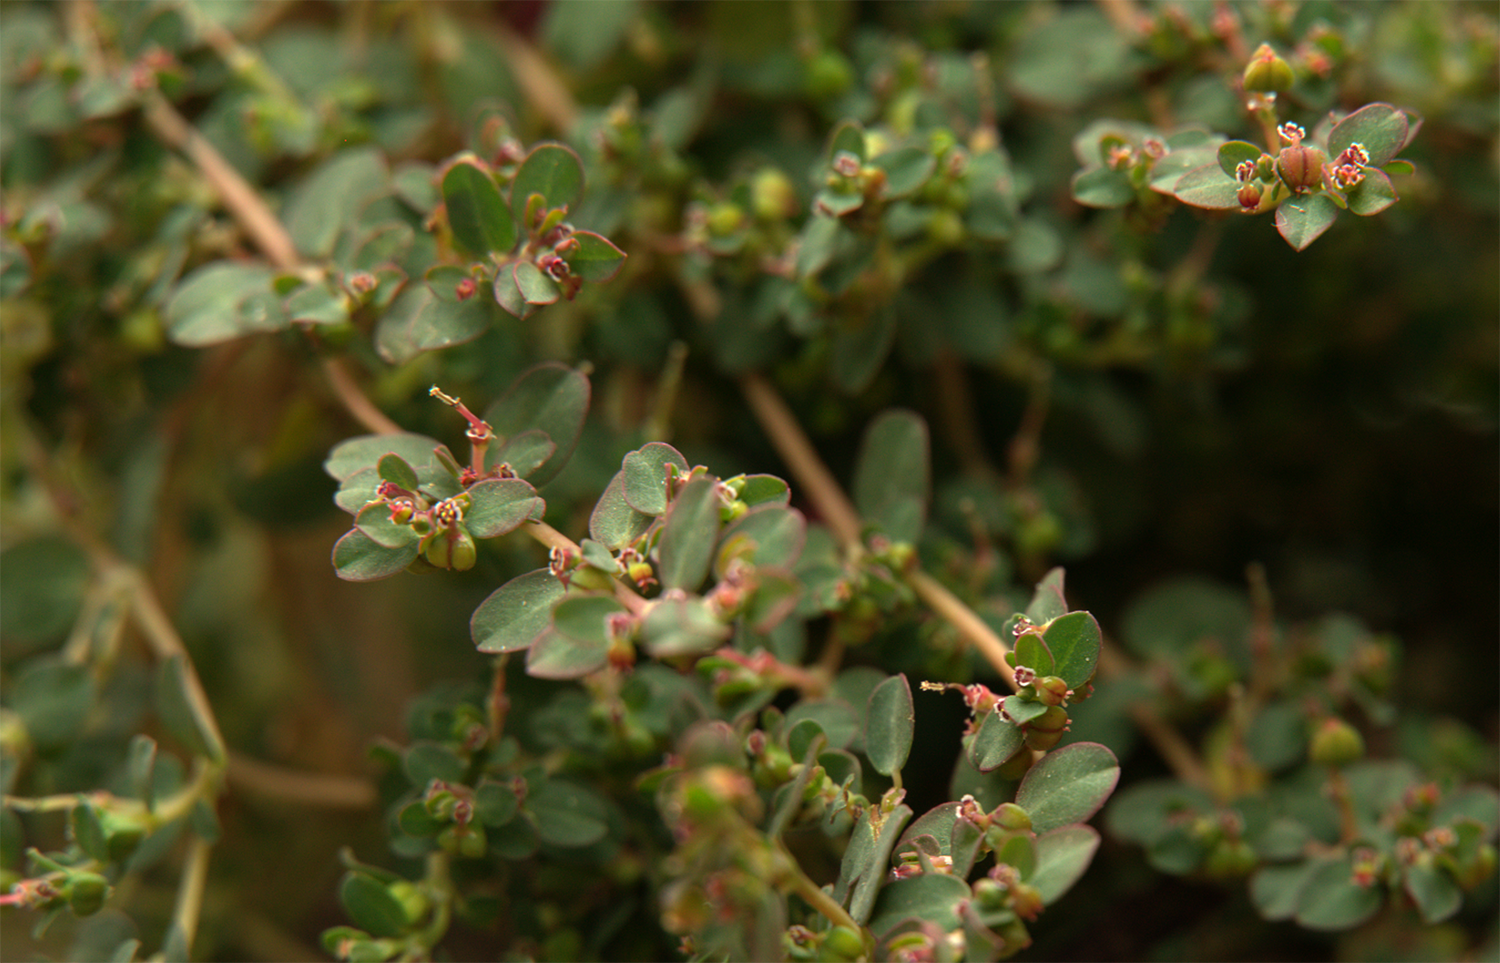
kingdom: Plantae
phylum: Tracheophyta
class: Magnoliopsida
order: Malpighiales
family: Euphorbiaceae
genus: Euphorbia
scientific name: Euphorbia serpens
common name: Matted sandmat
